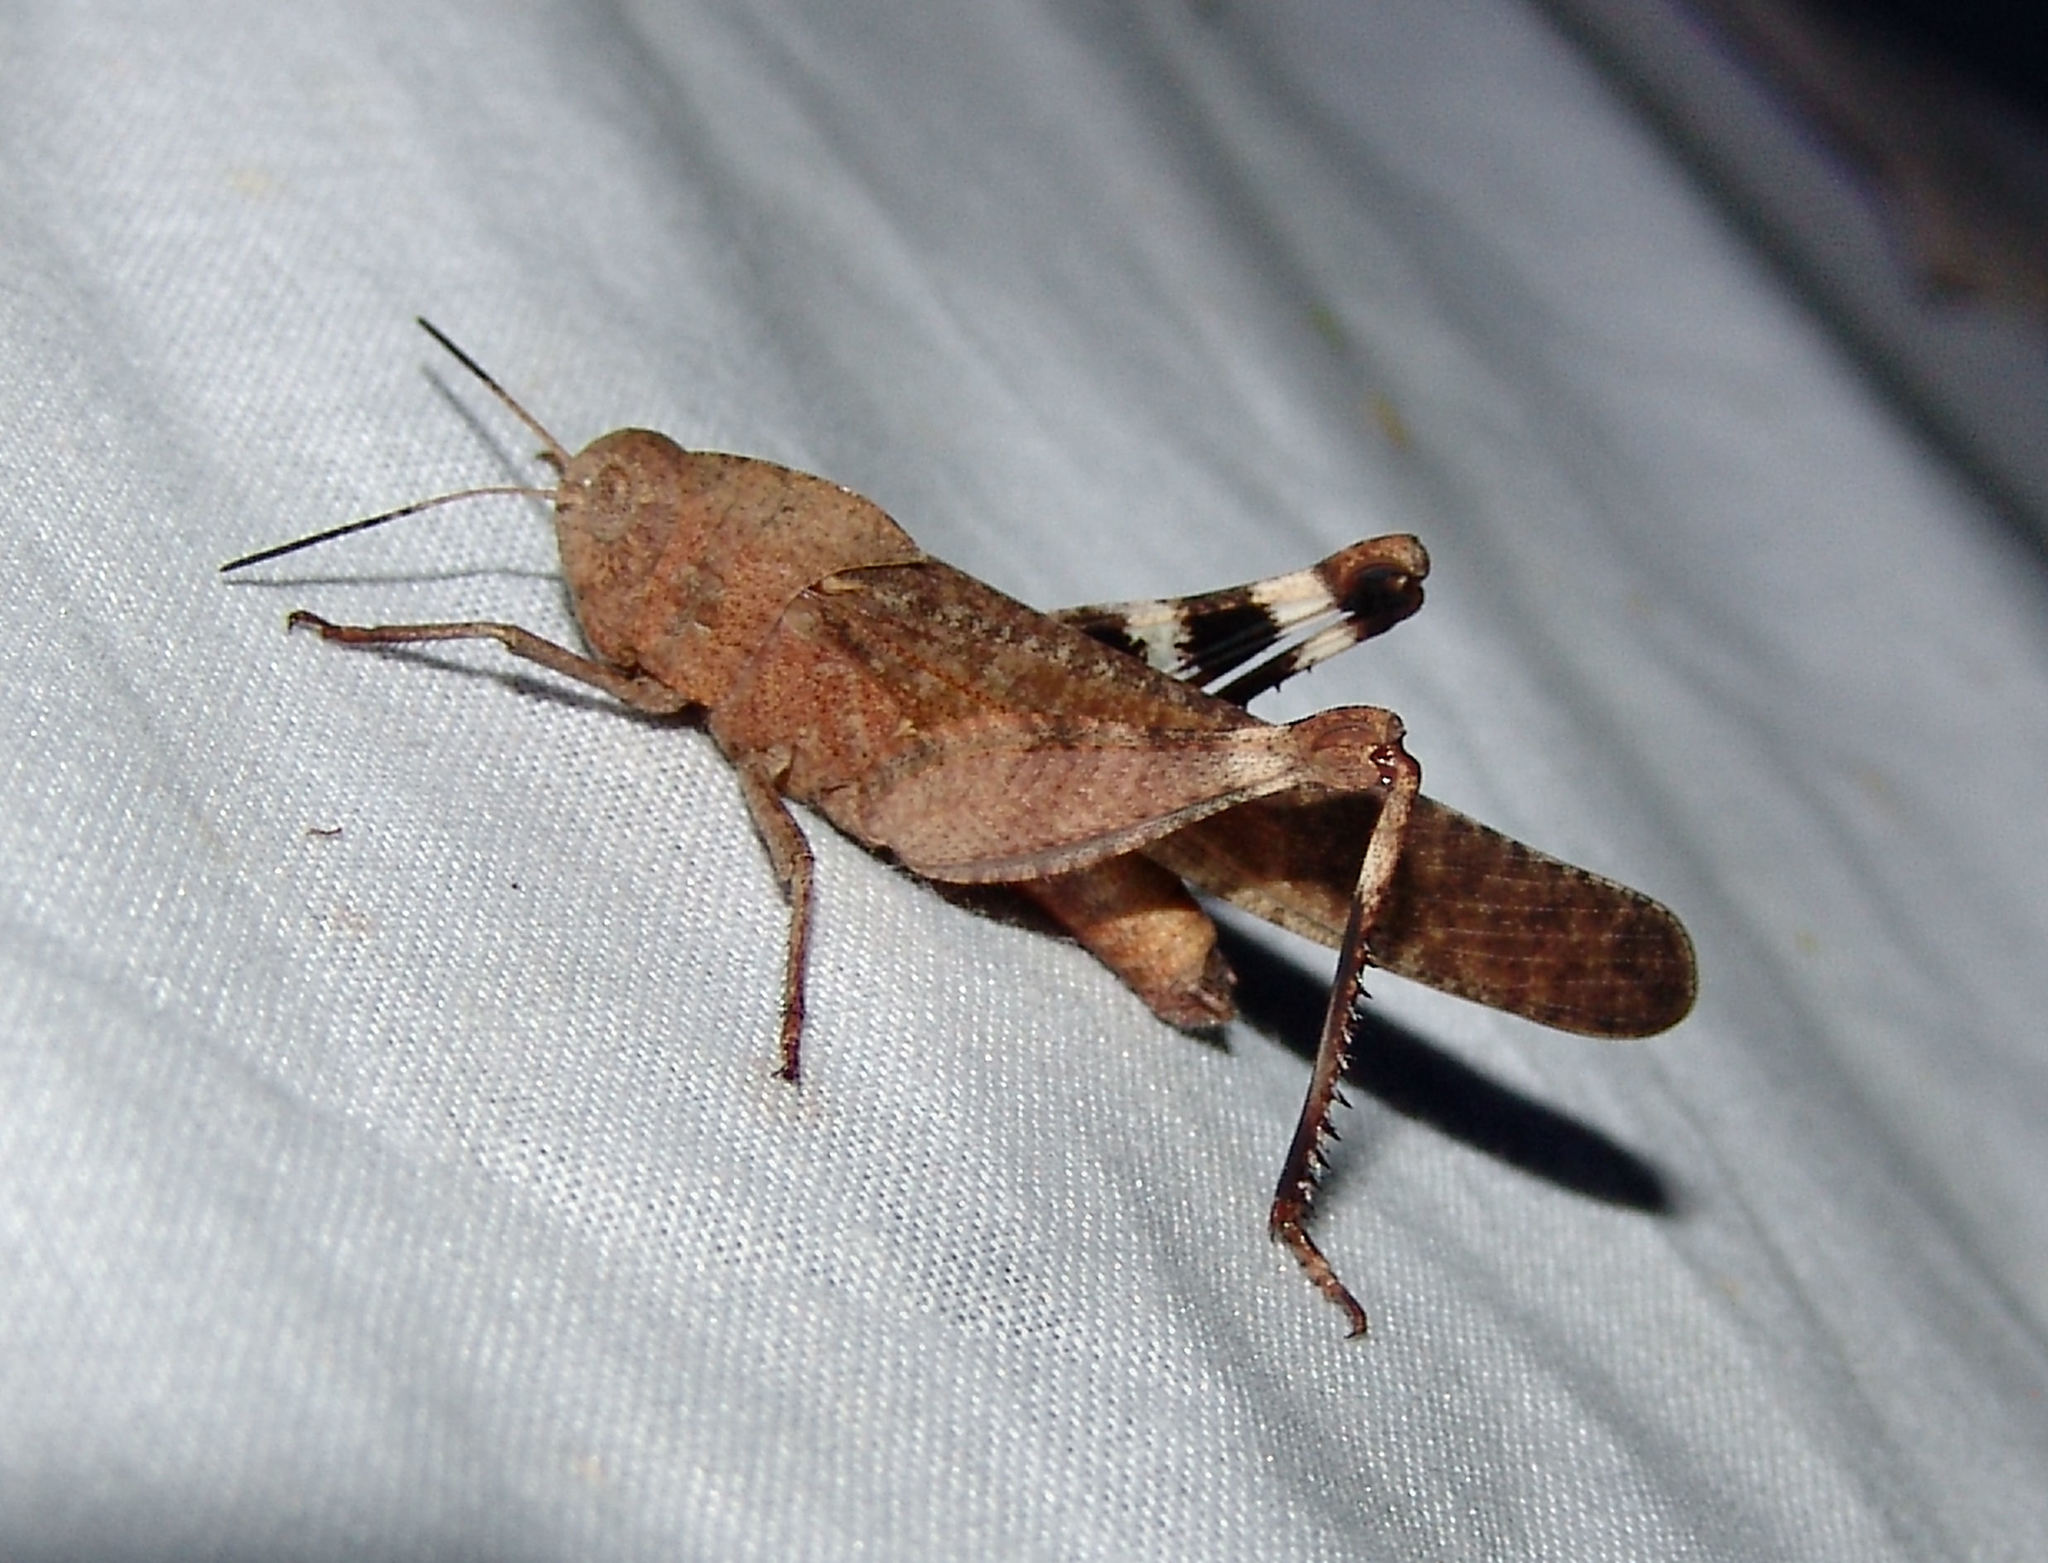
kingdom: Animalia
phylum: Arthropoda
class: Insecta
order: Orthoptera
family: Acrididae
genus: Arphia
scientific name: Arphia xanthoptera
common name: Autumn yellow-winged grasshopper
